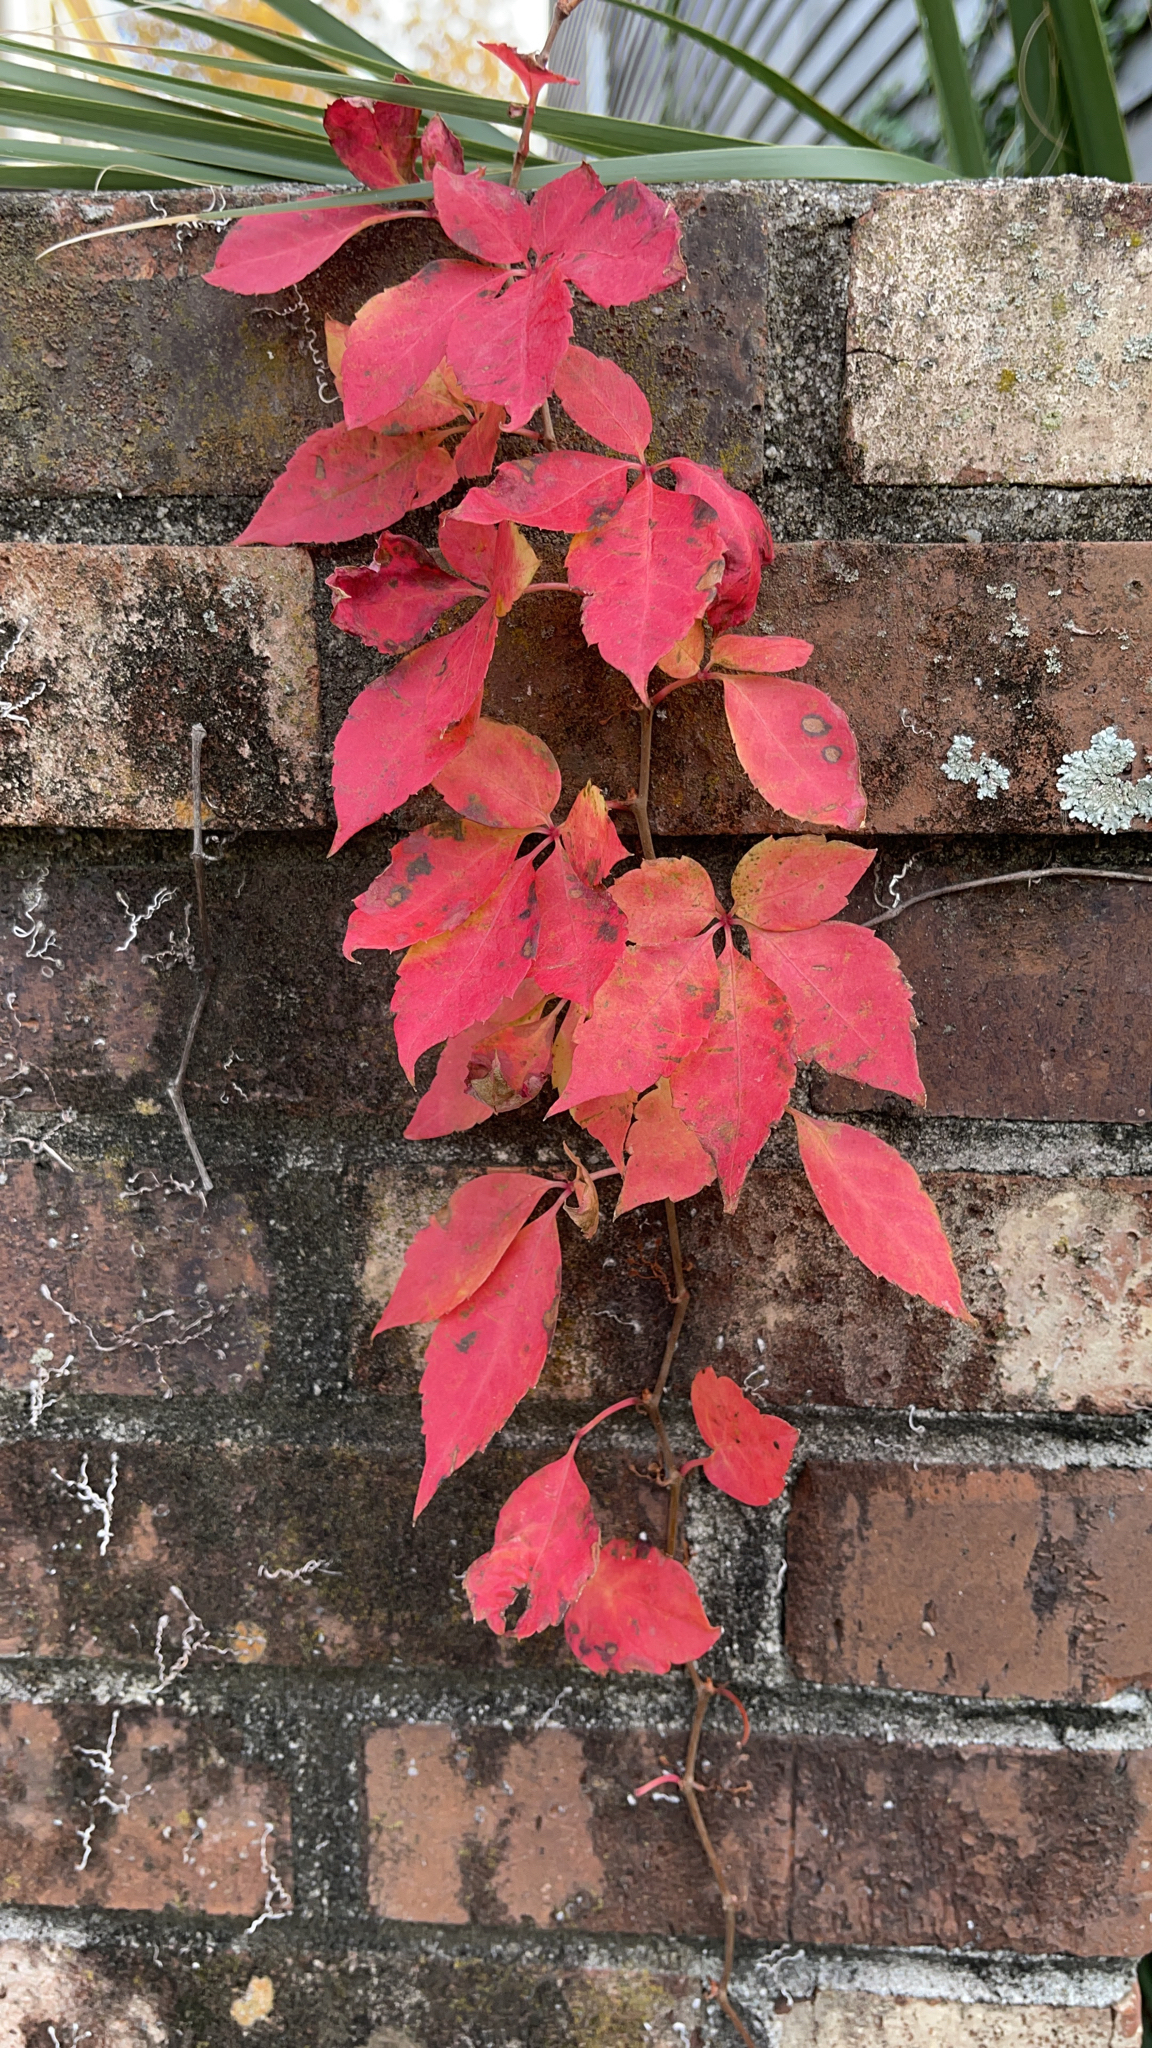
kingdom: Plantae
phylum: Tracheophyta
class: Magnoliopsida
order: Vitales
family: Vitaceae
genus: Parthenocissus
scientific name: Parthenocissus quinquefolia
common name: Virginia-creeper
